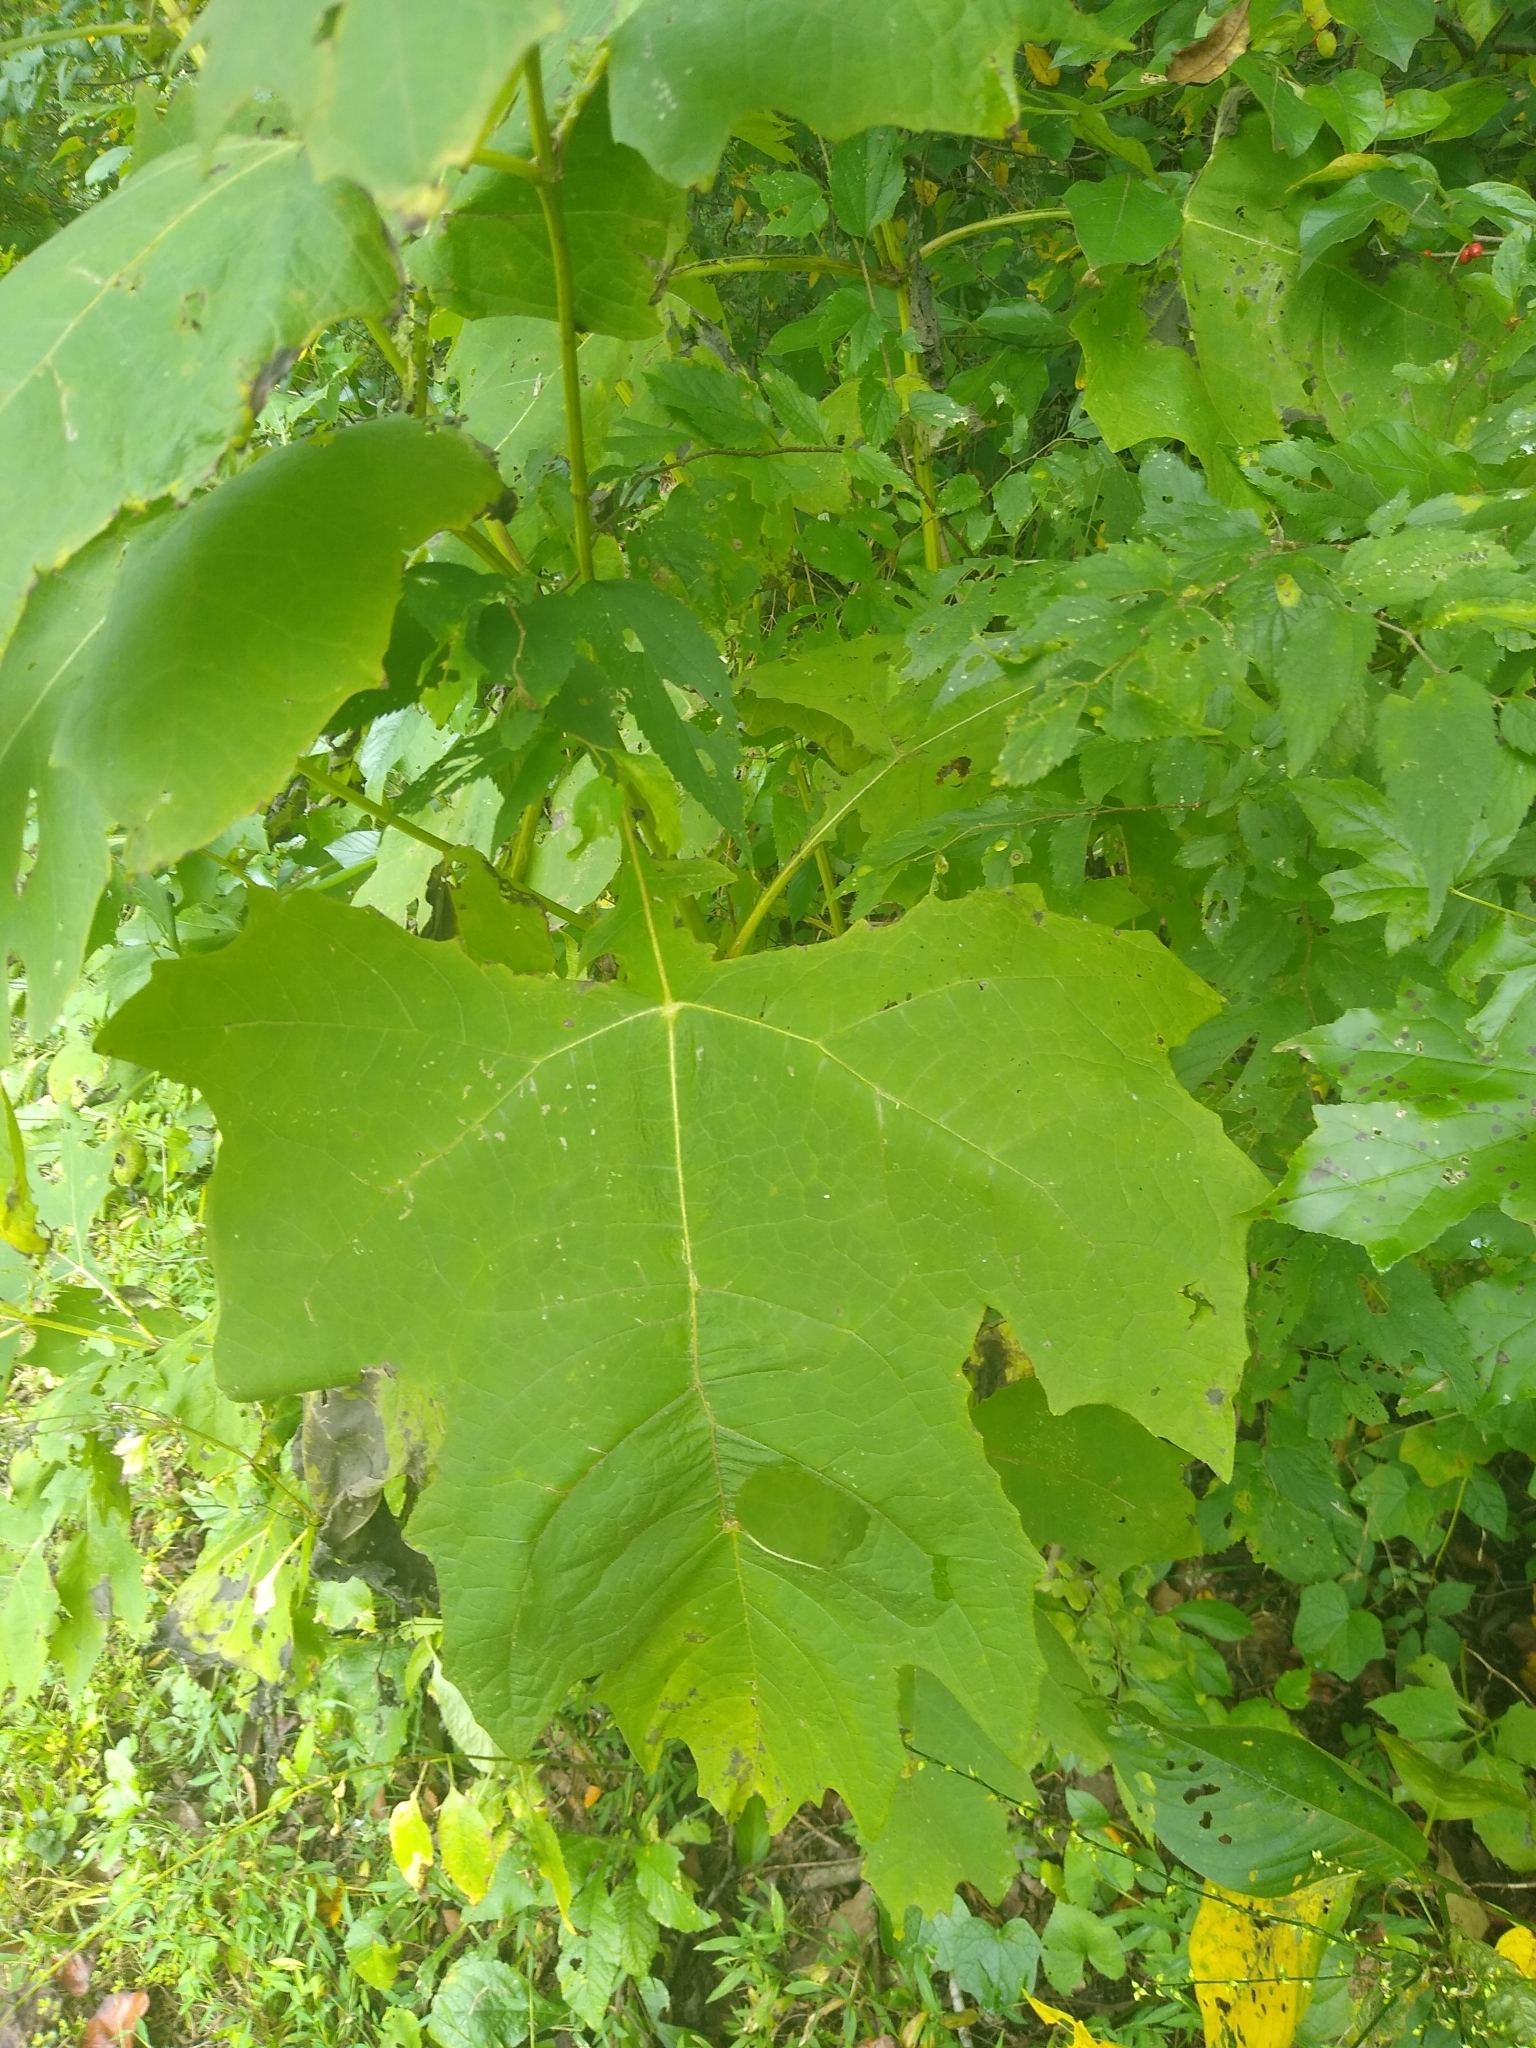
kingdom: Plantae
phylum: Tracheophyta
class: Magnoliopsida
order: Asterales
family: Asteraceae
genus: Smallanthus
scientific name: Smallanthus uvedalia
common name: Bear's-foot
